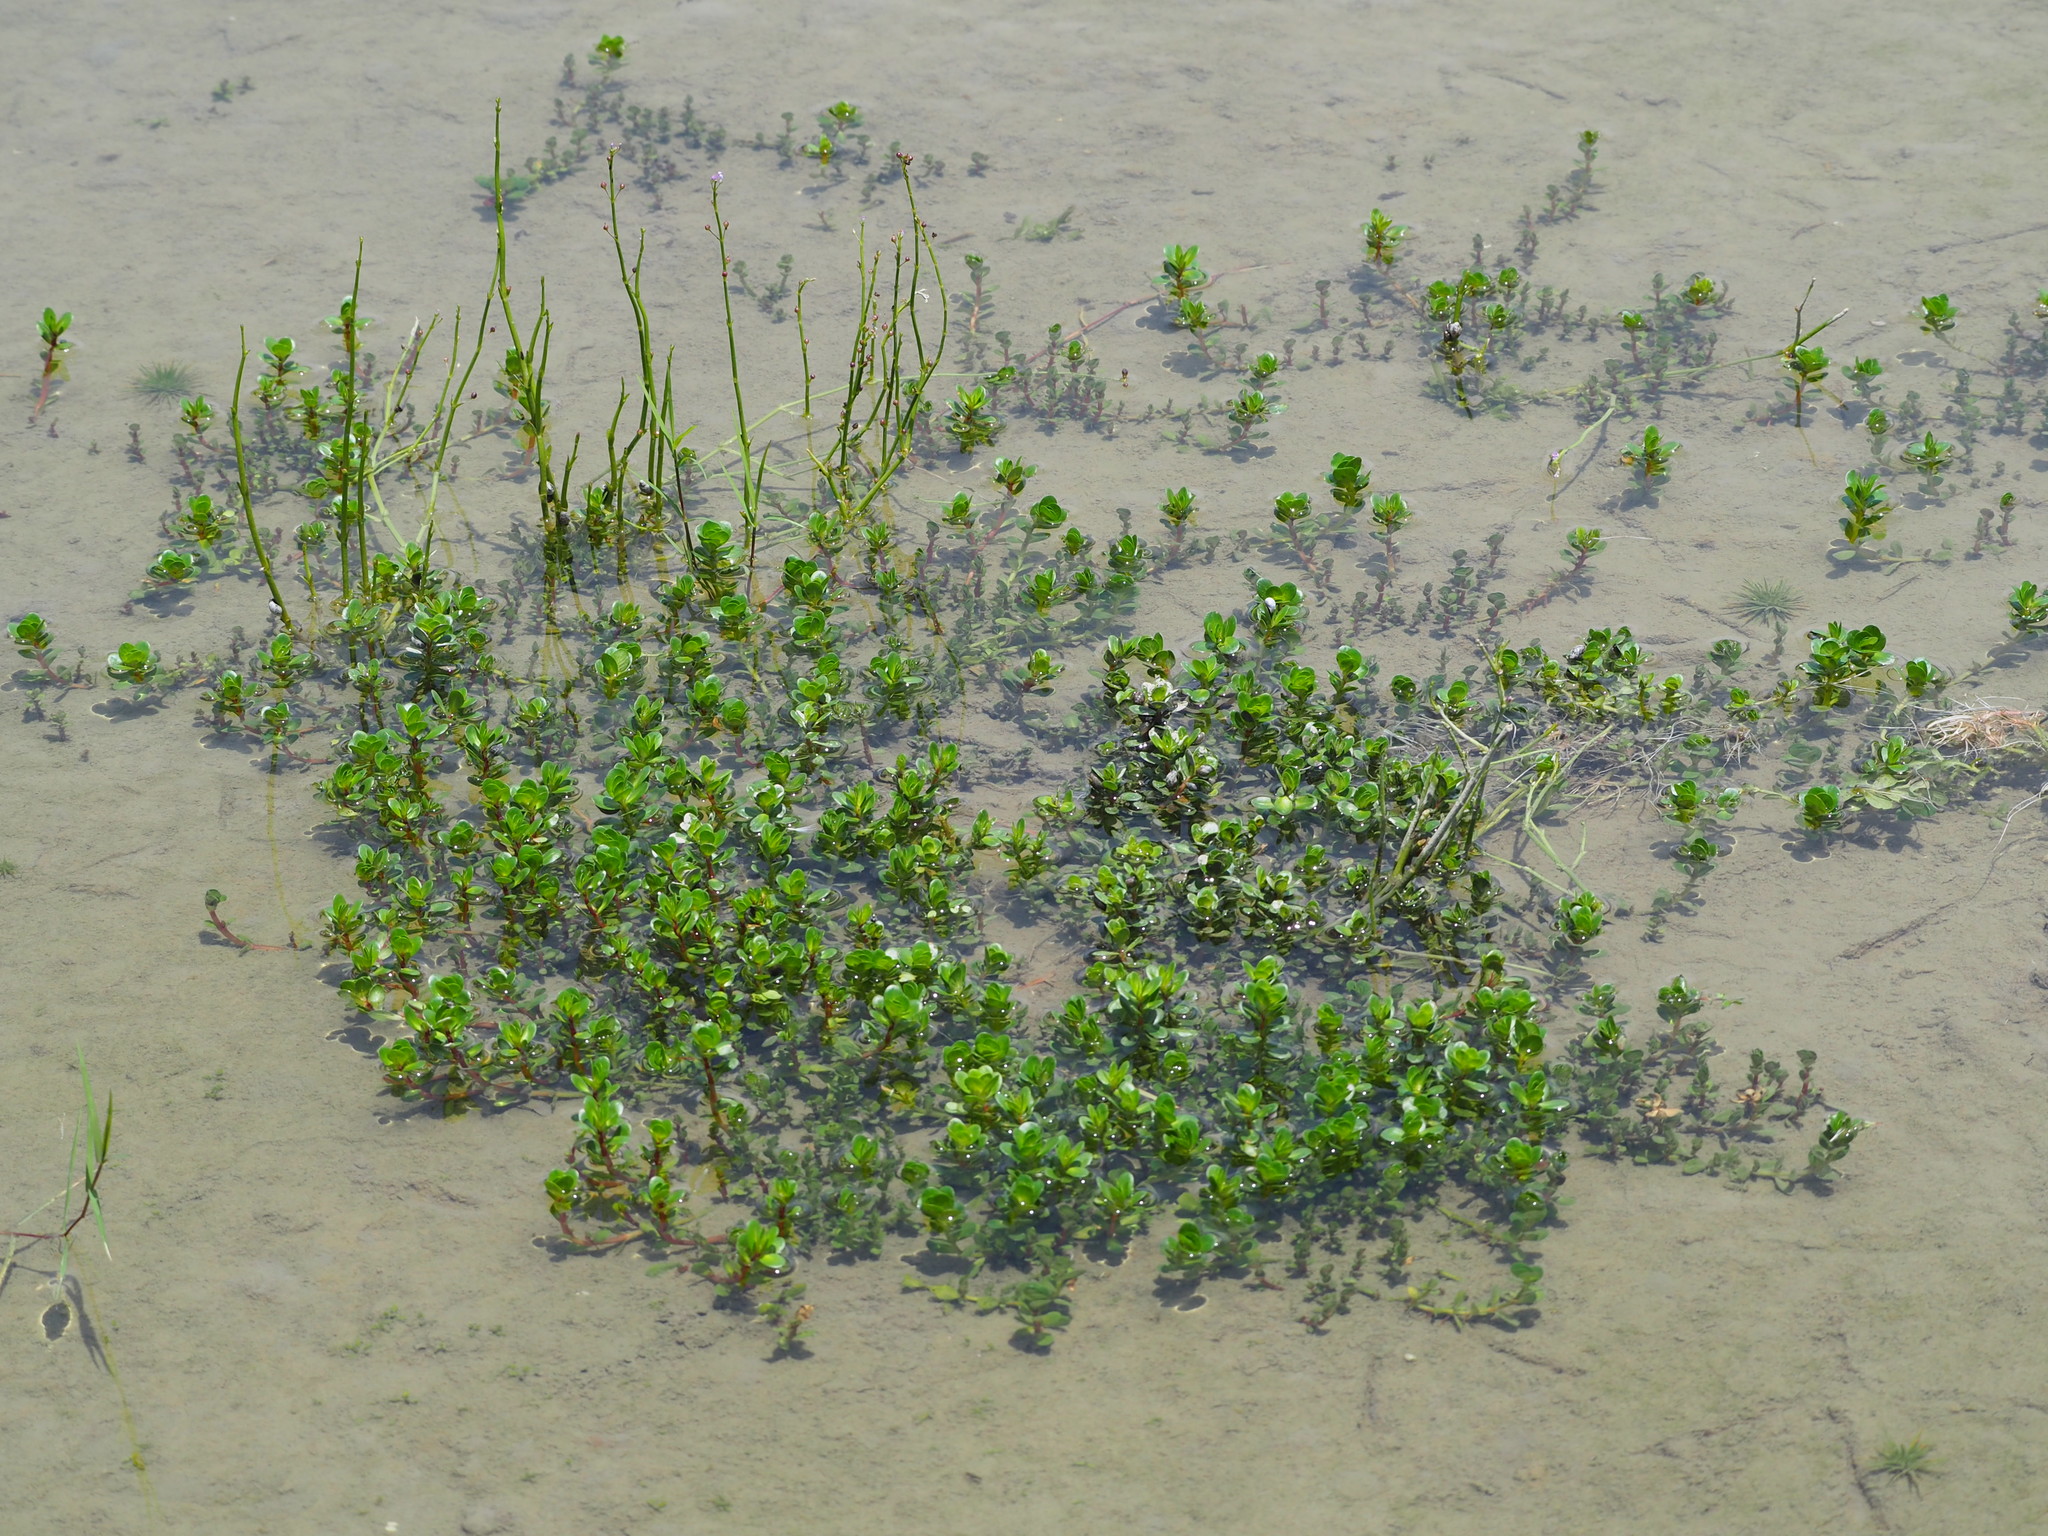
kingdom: Plantae
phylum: Tracheophyta
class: Magnoliopsida
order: Myrtales
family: Lythraceae
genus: Rotala
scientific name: Rotala rotundifolia
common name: Roundleaf toothcup
